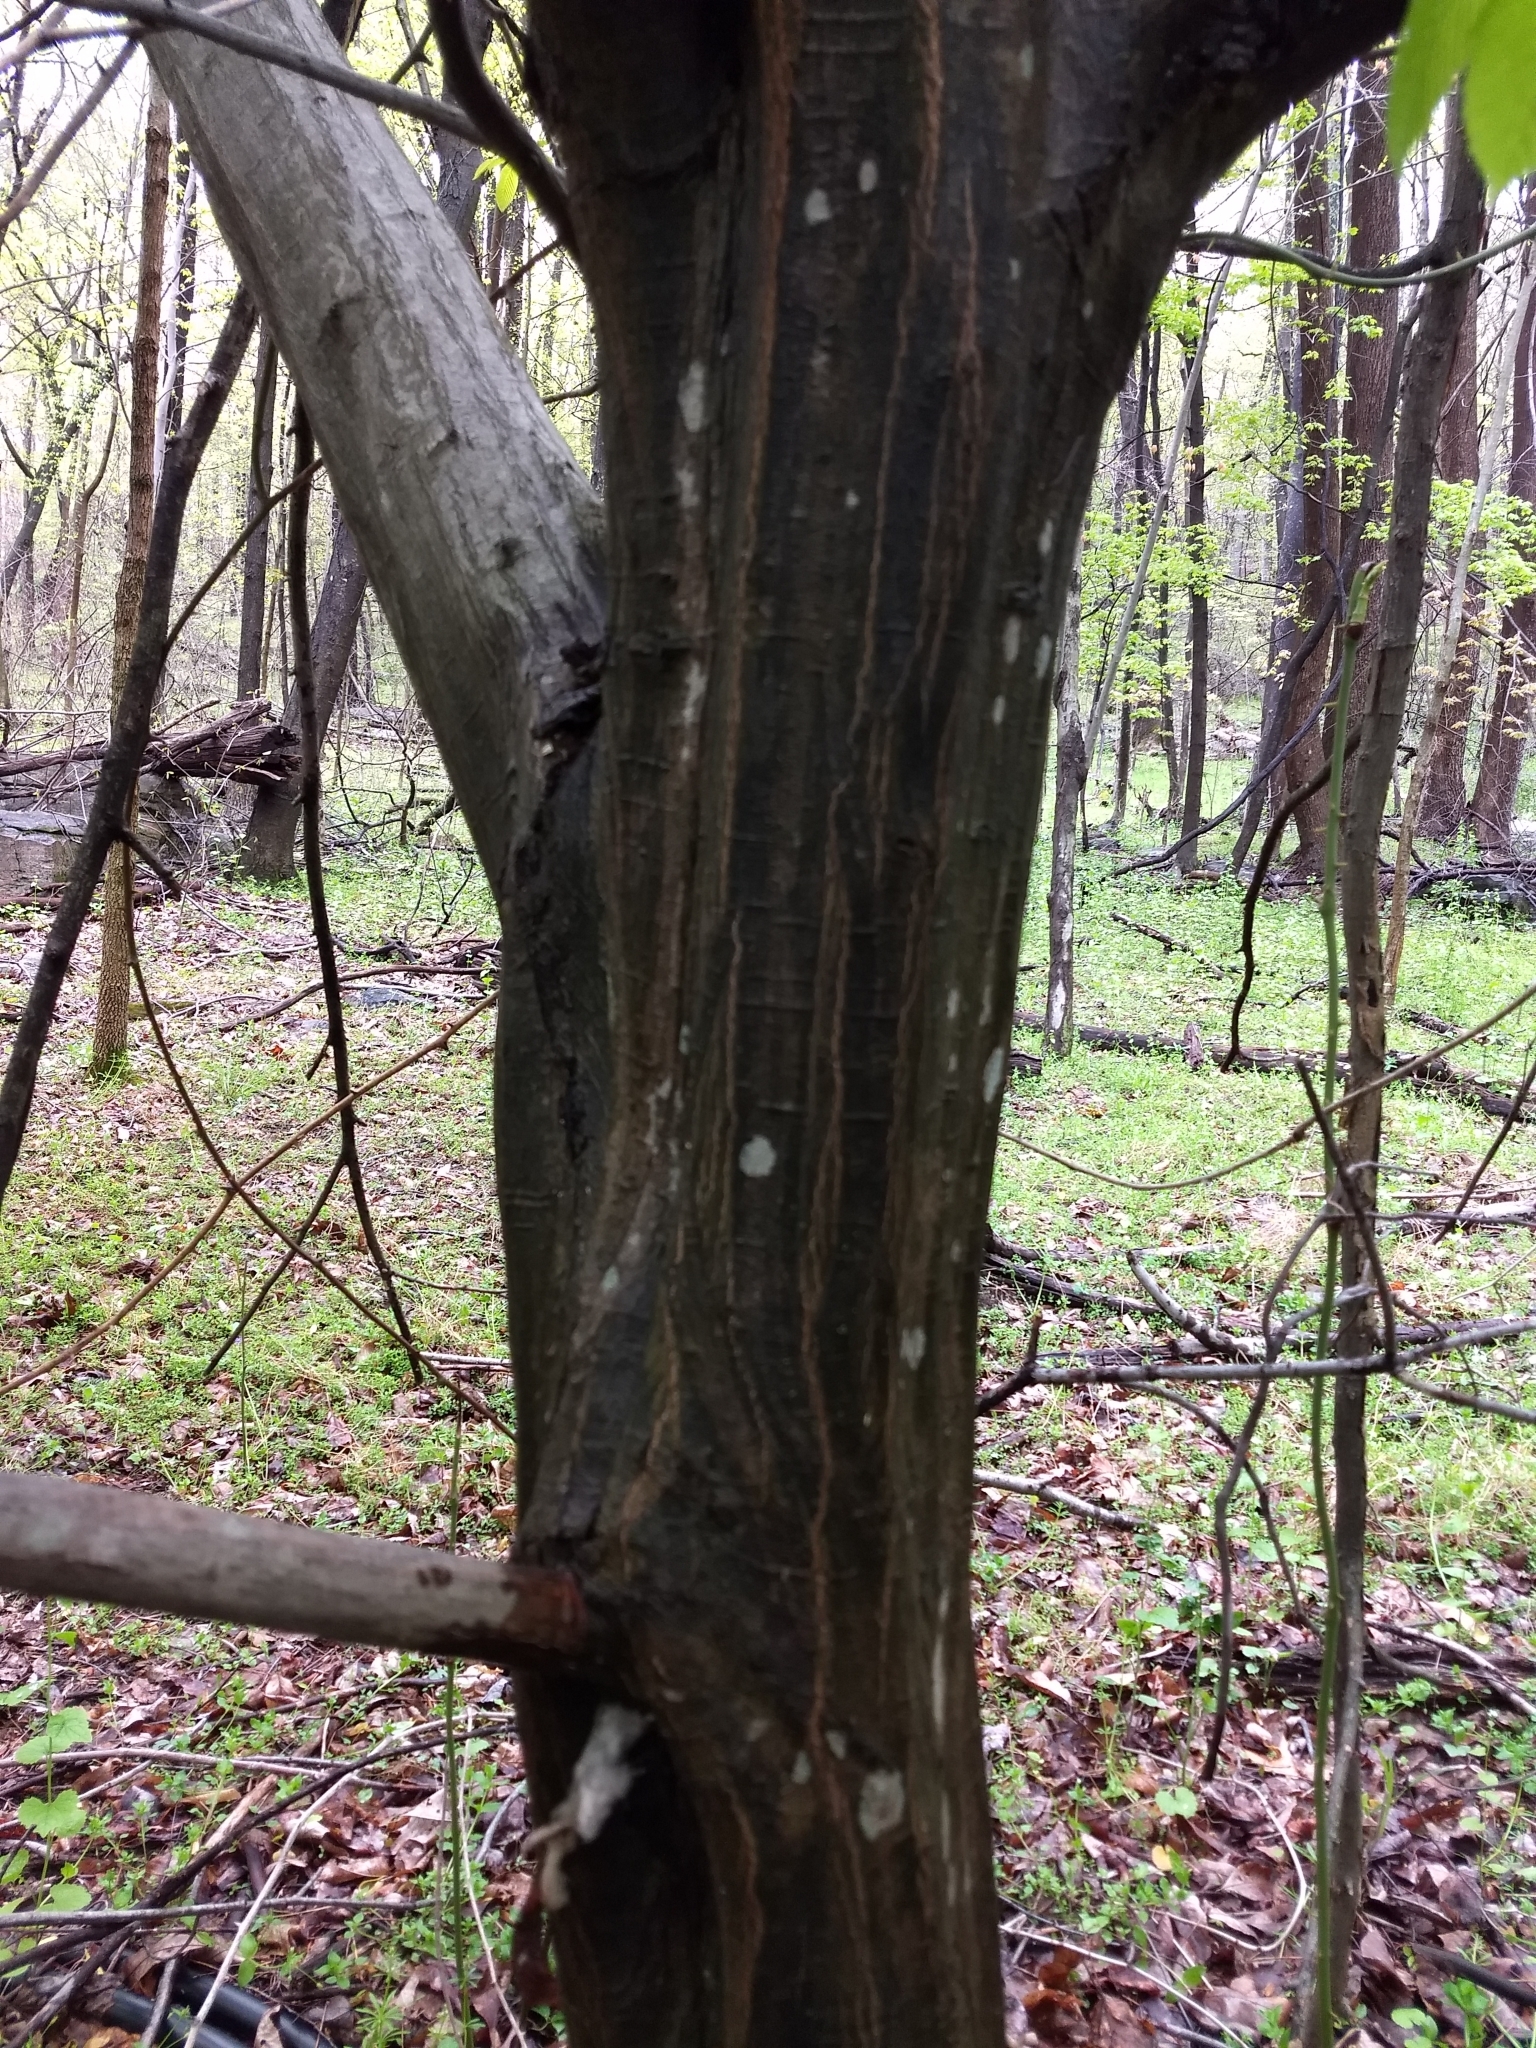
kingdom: Plantae
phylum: Tracheophyta
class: Magnoliopsida
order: Fagales
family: Betulaceae
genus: Carpinus
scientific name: Carpinus caroliniana
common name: American hornbeam
